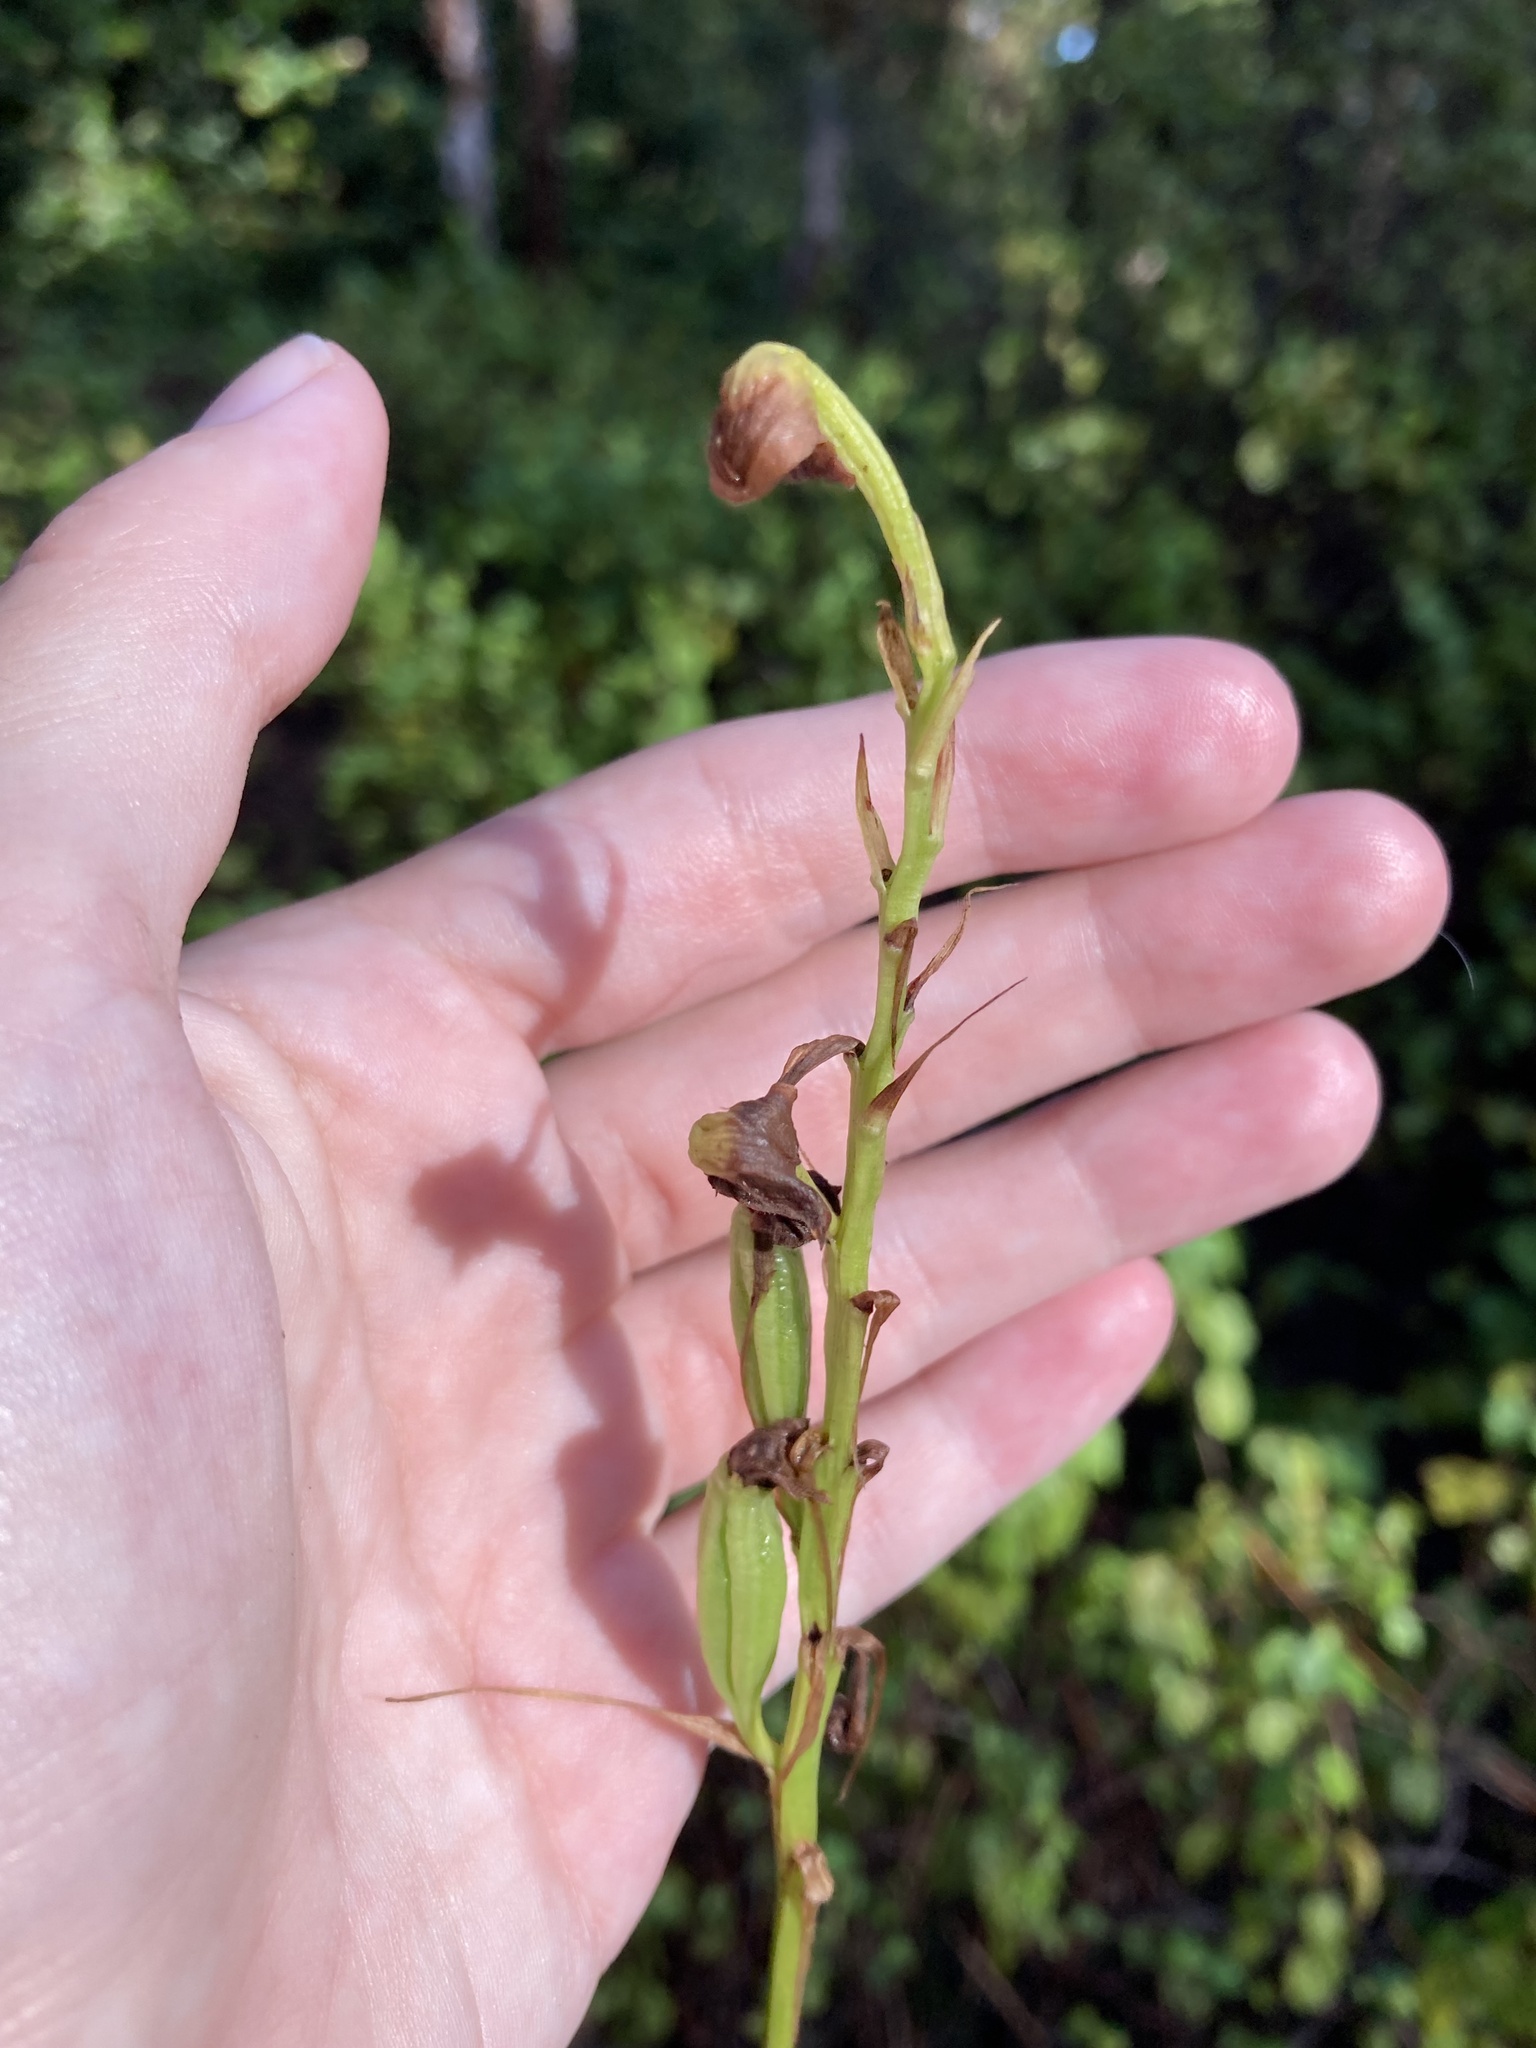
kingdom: Plantae
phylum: Tracheophyta
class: Liliopsida
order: Asparagales
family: Orchidaceae
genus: Eulophia
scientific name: Eulophia ecristata
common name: Giant orchid
